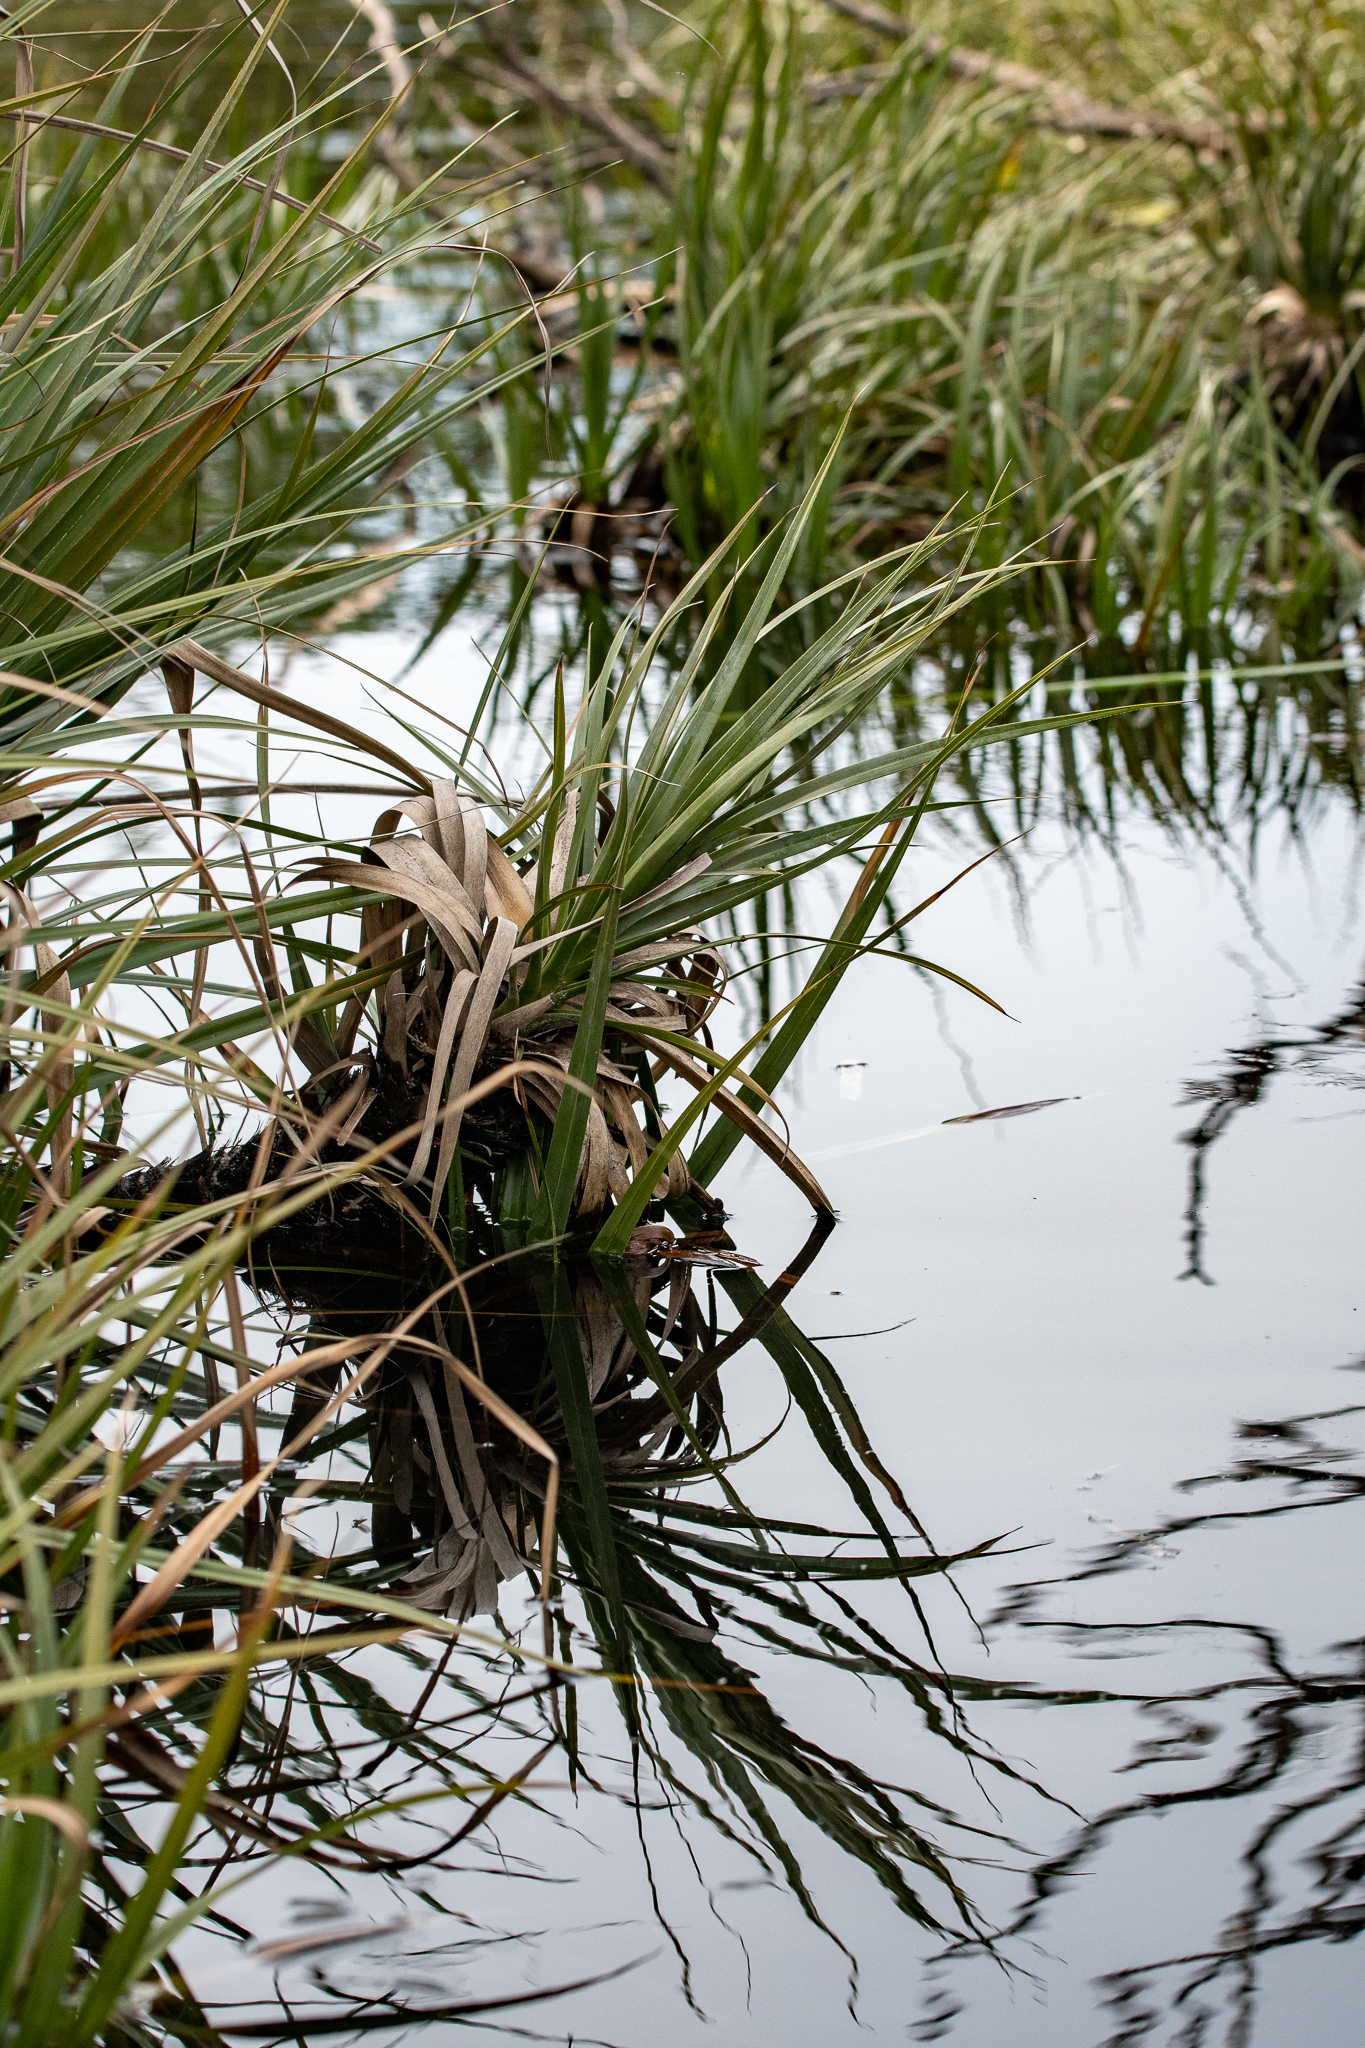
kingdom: Plantae
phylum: Tracheophyta
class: Liliopsida
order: Poales
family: Thurniaceae
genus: Prionium
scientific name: Prionium serratum
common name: Palmiet
